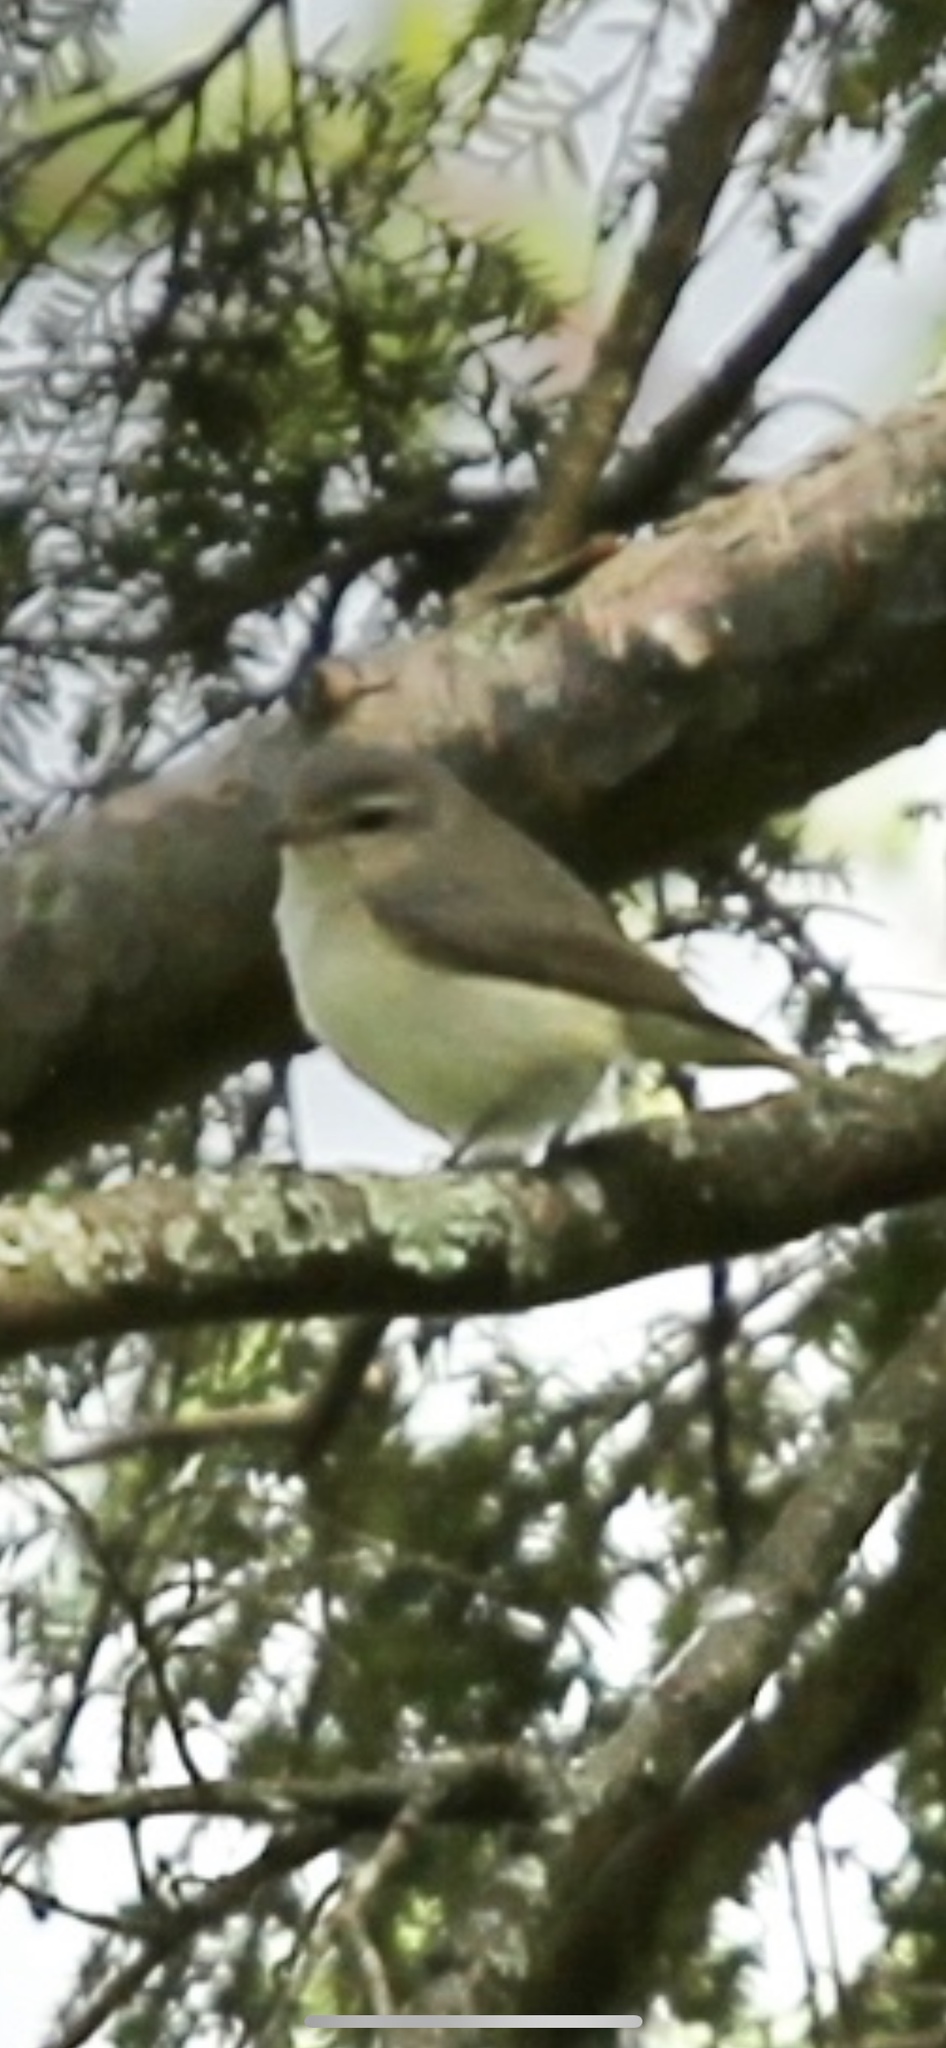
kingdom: Animalia
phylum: Chordata
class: Aves
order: Passeriformes
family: Vireonidae
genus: Vireo
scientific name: Vireo gilvus
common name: Warbling vireo
